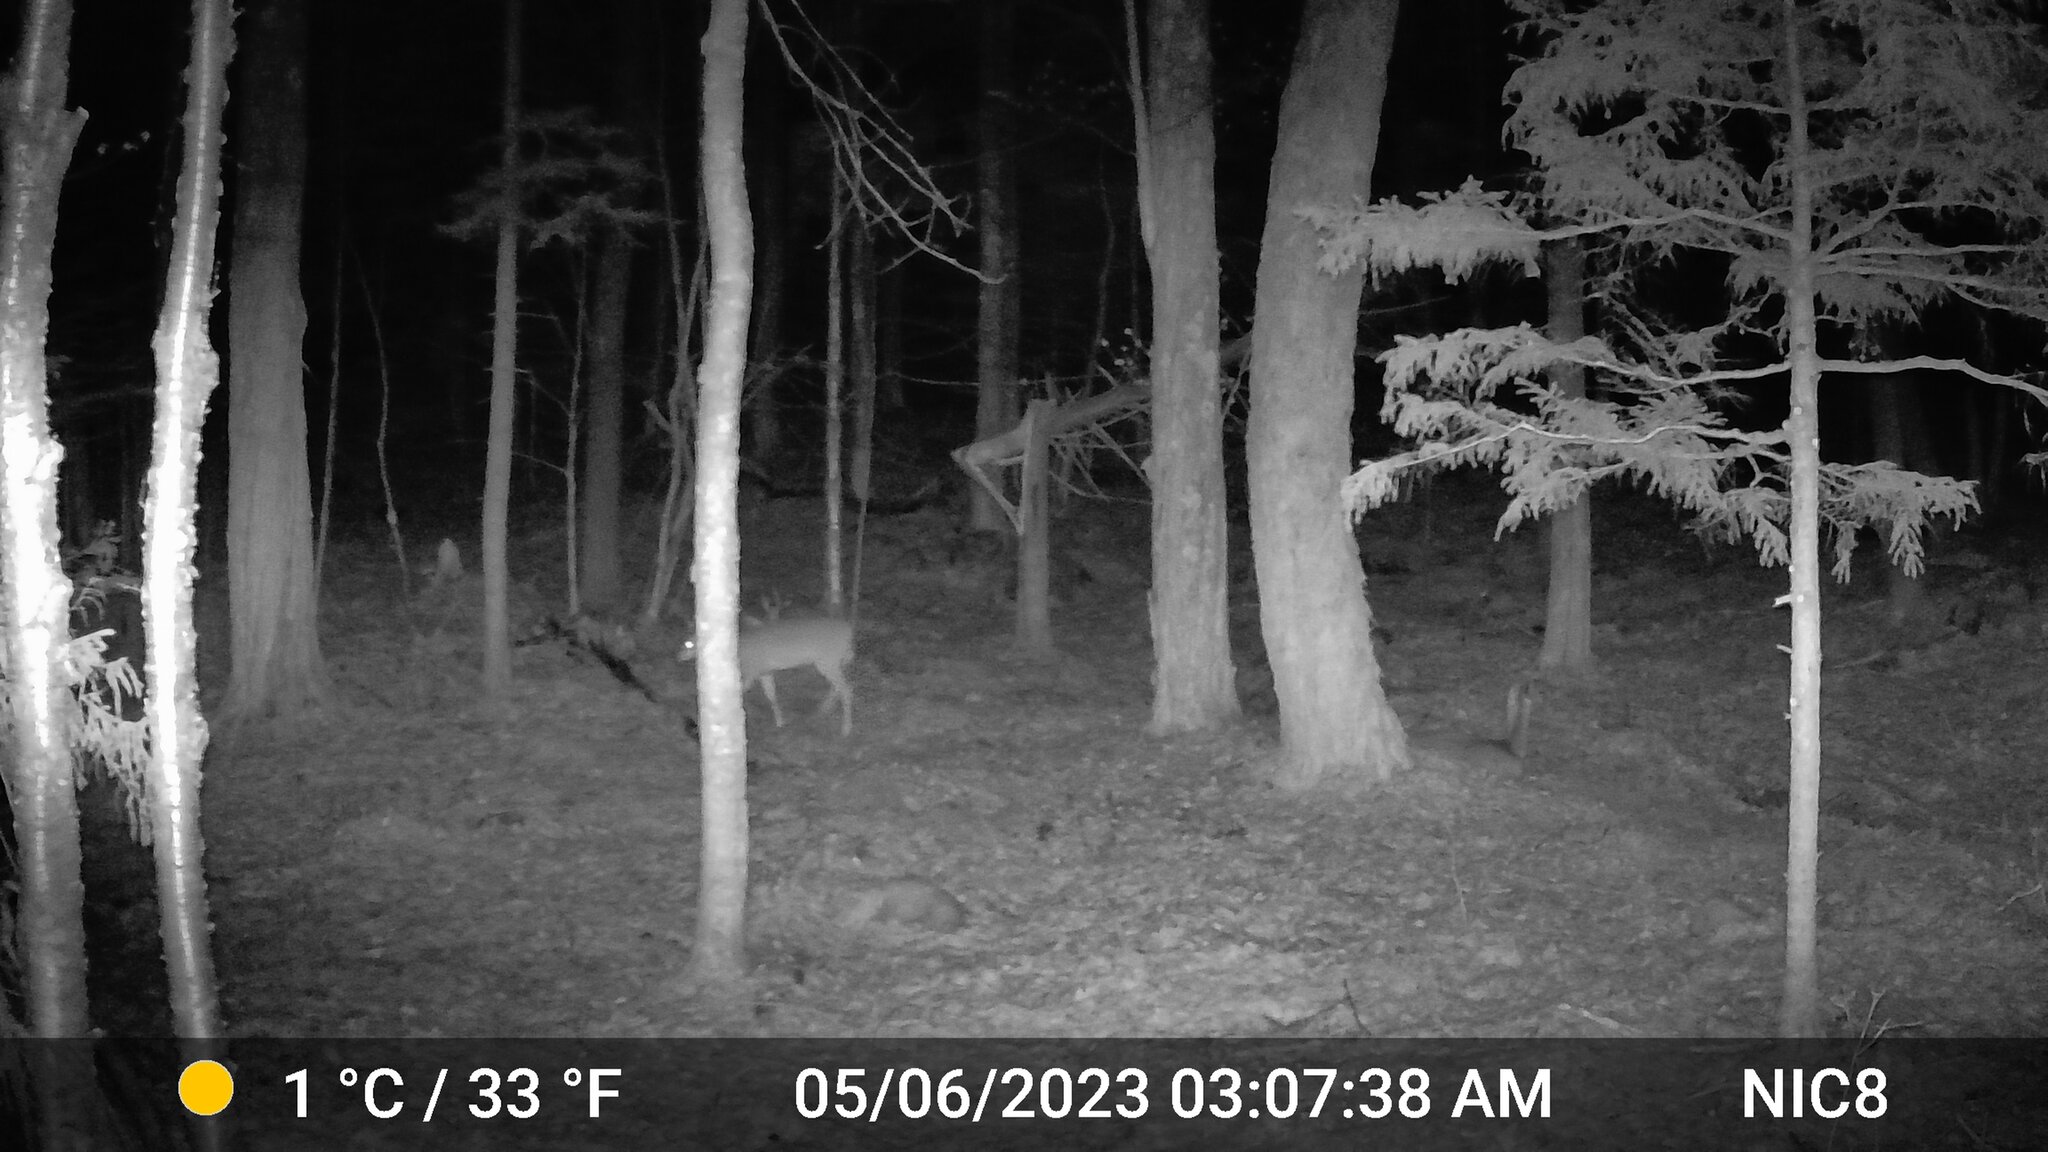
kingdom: Animalia
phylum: Chordata
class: Mammalia
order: Artiodactyla
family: Cervidae
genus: Odocoileus
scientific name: Odocoileus virginianus
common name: White-tailed deer
